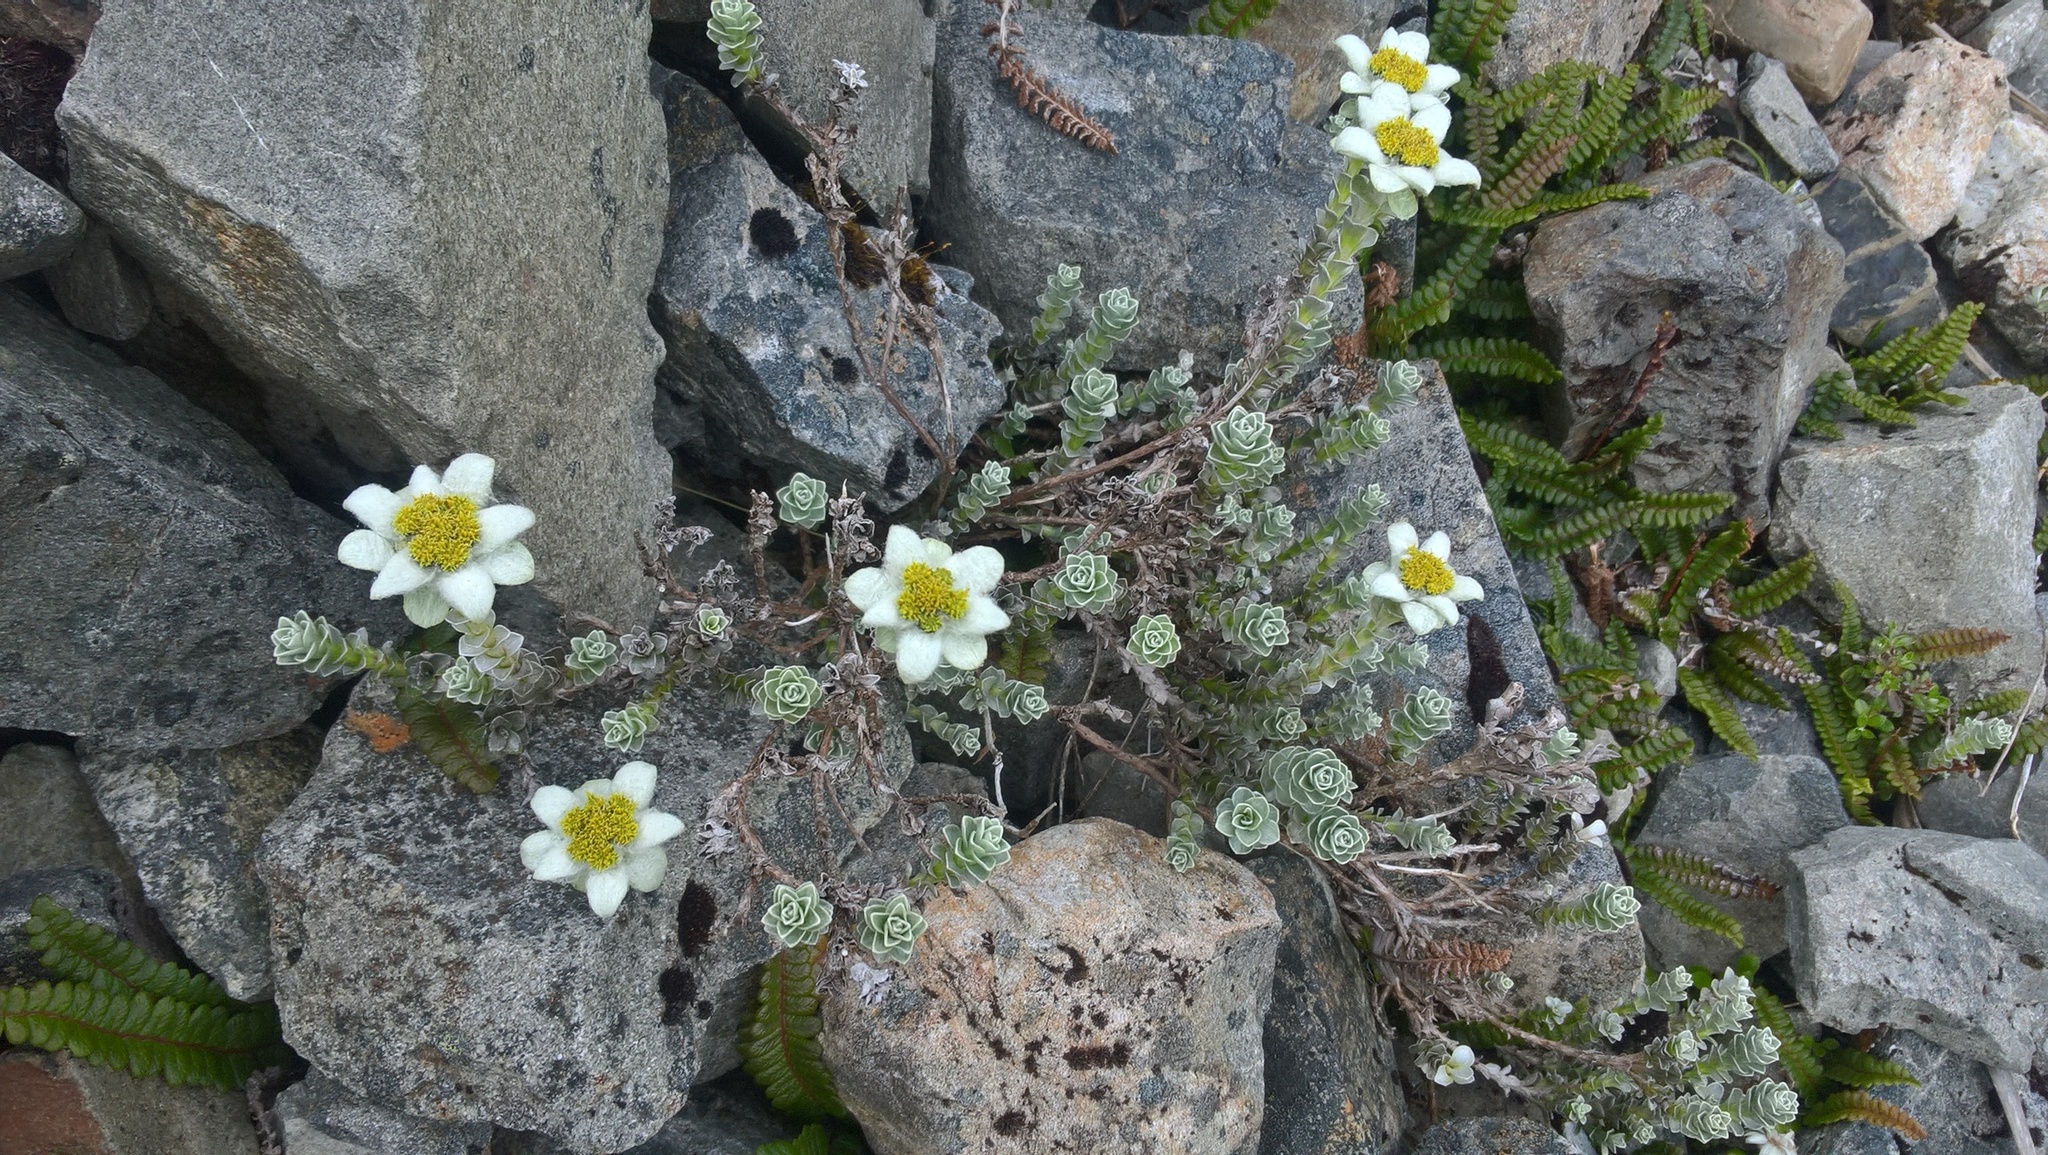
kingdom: Plantae
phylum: Tracheophyta
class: Magnoliopsida
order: Asterales
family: Asteraceae
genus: Leucogenes
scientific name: Leucogenes grandiceps
